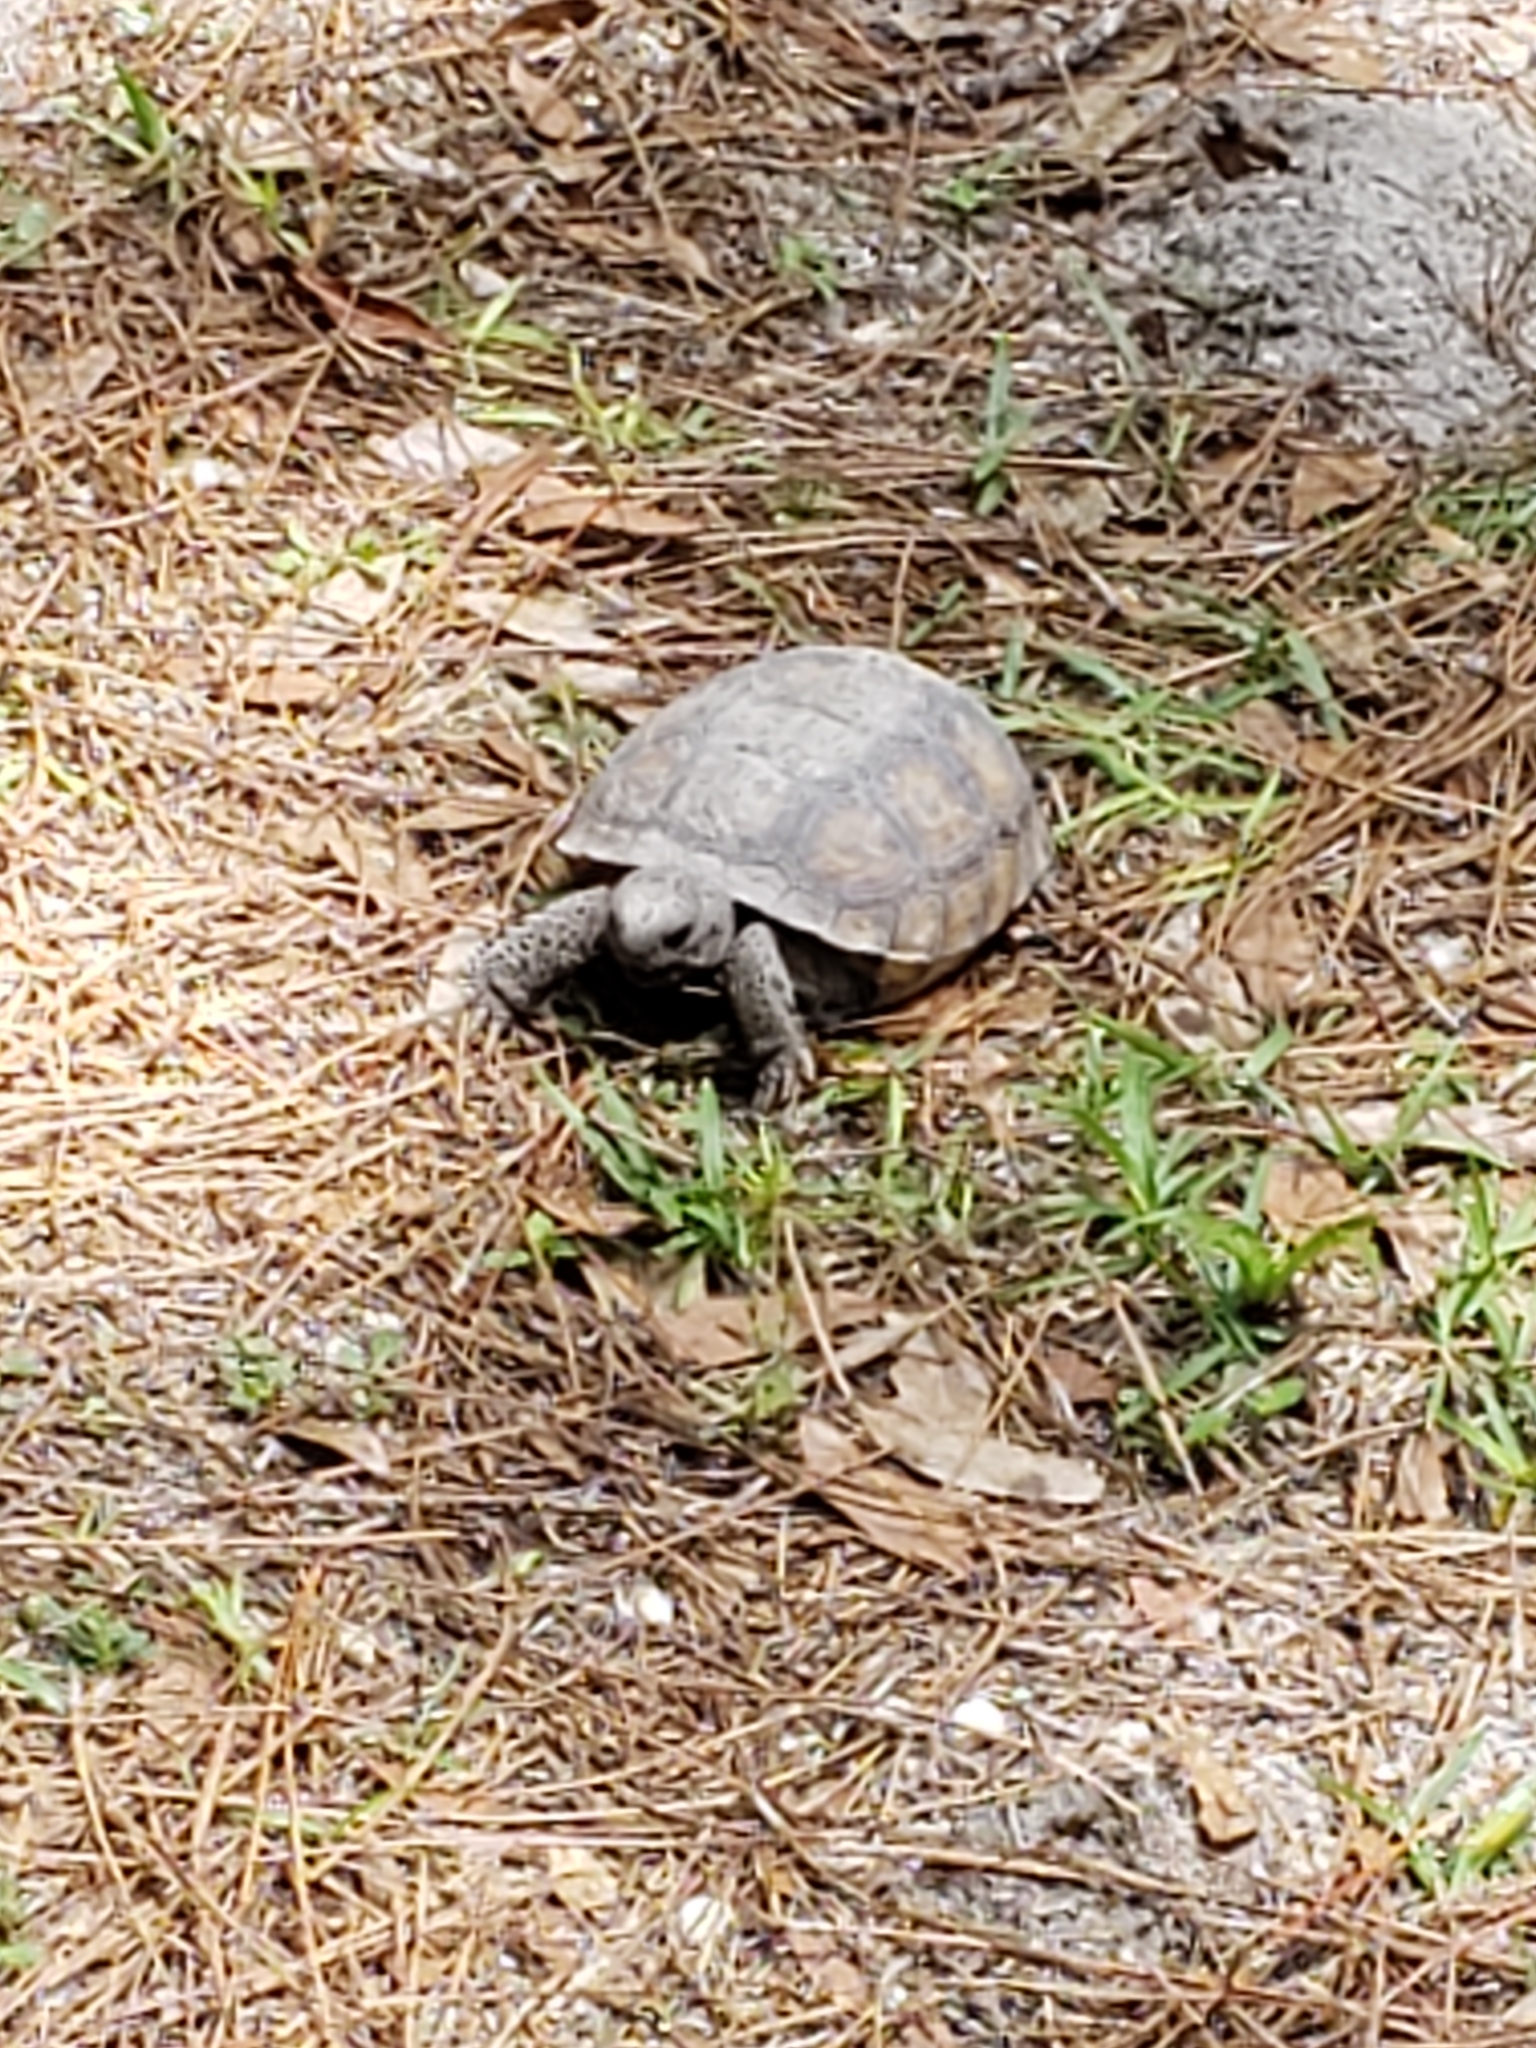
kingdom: Animalia
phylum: Chordata
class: Testudines
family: Testudinidae
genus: Gopherus
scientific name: Gopherus polyphemus
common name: Florida gopher tortoise
